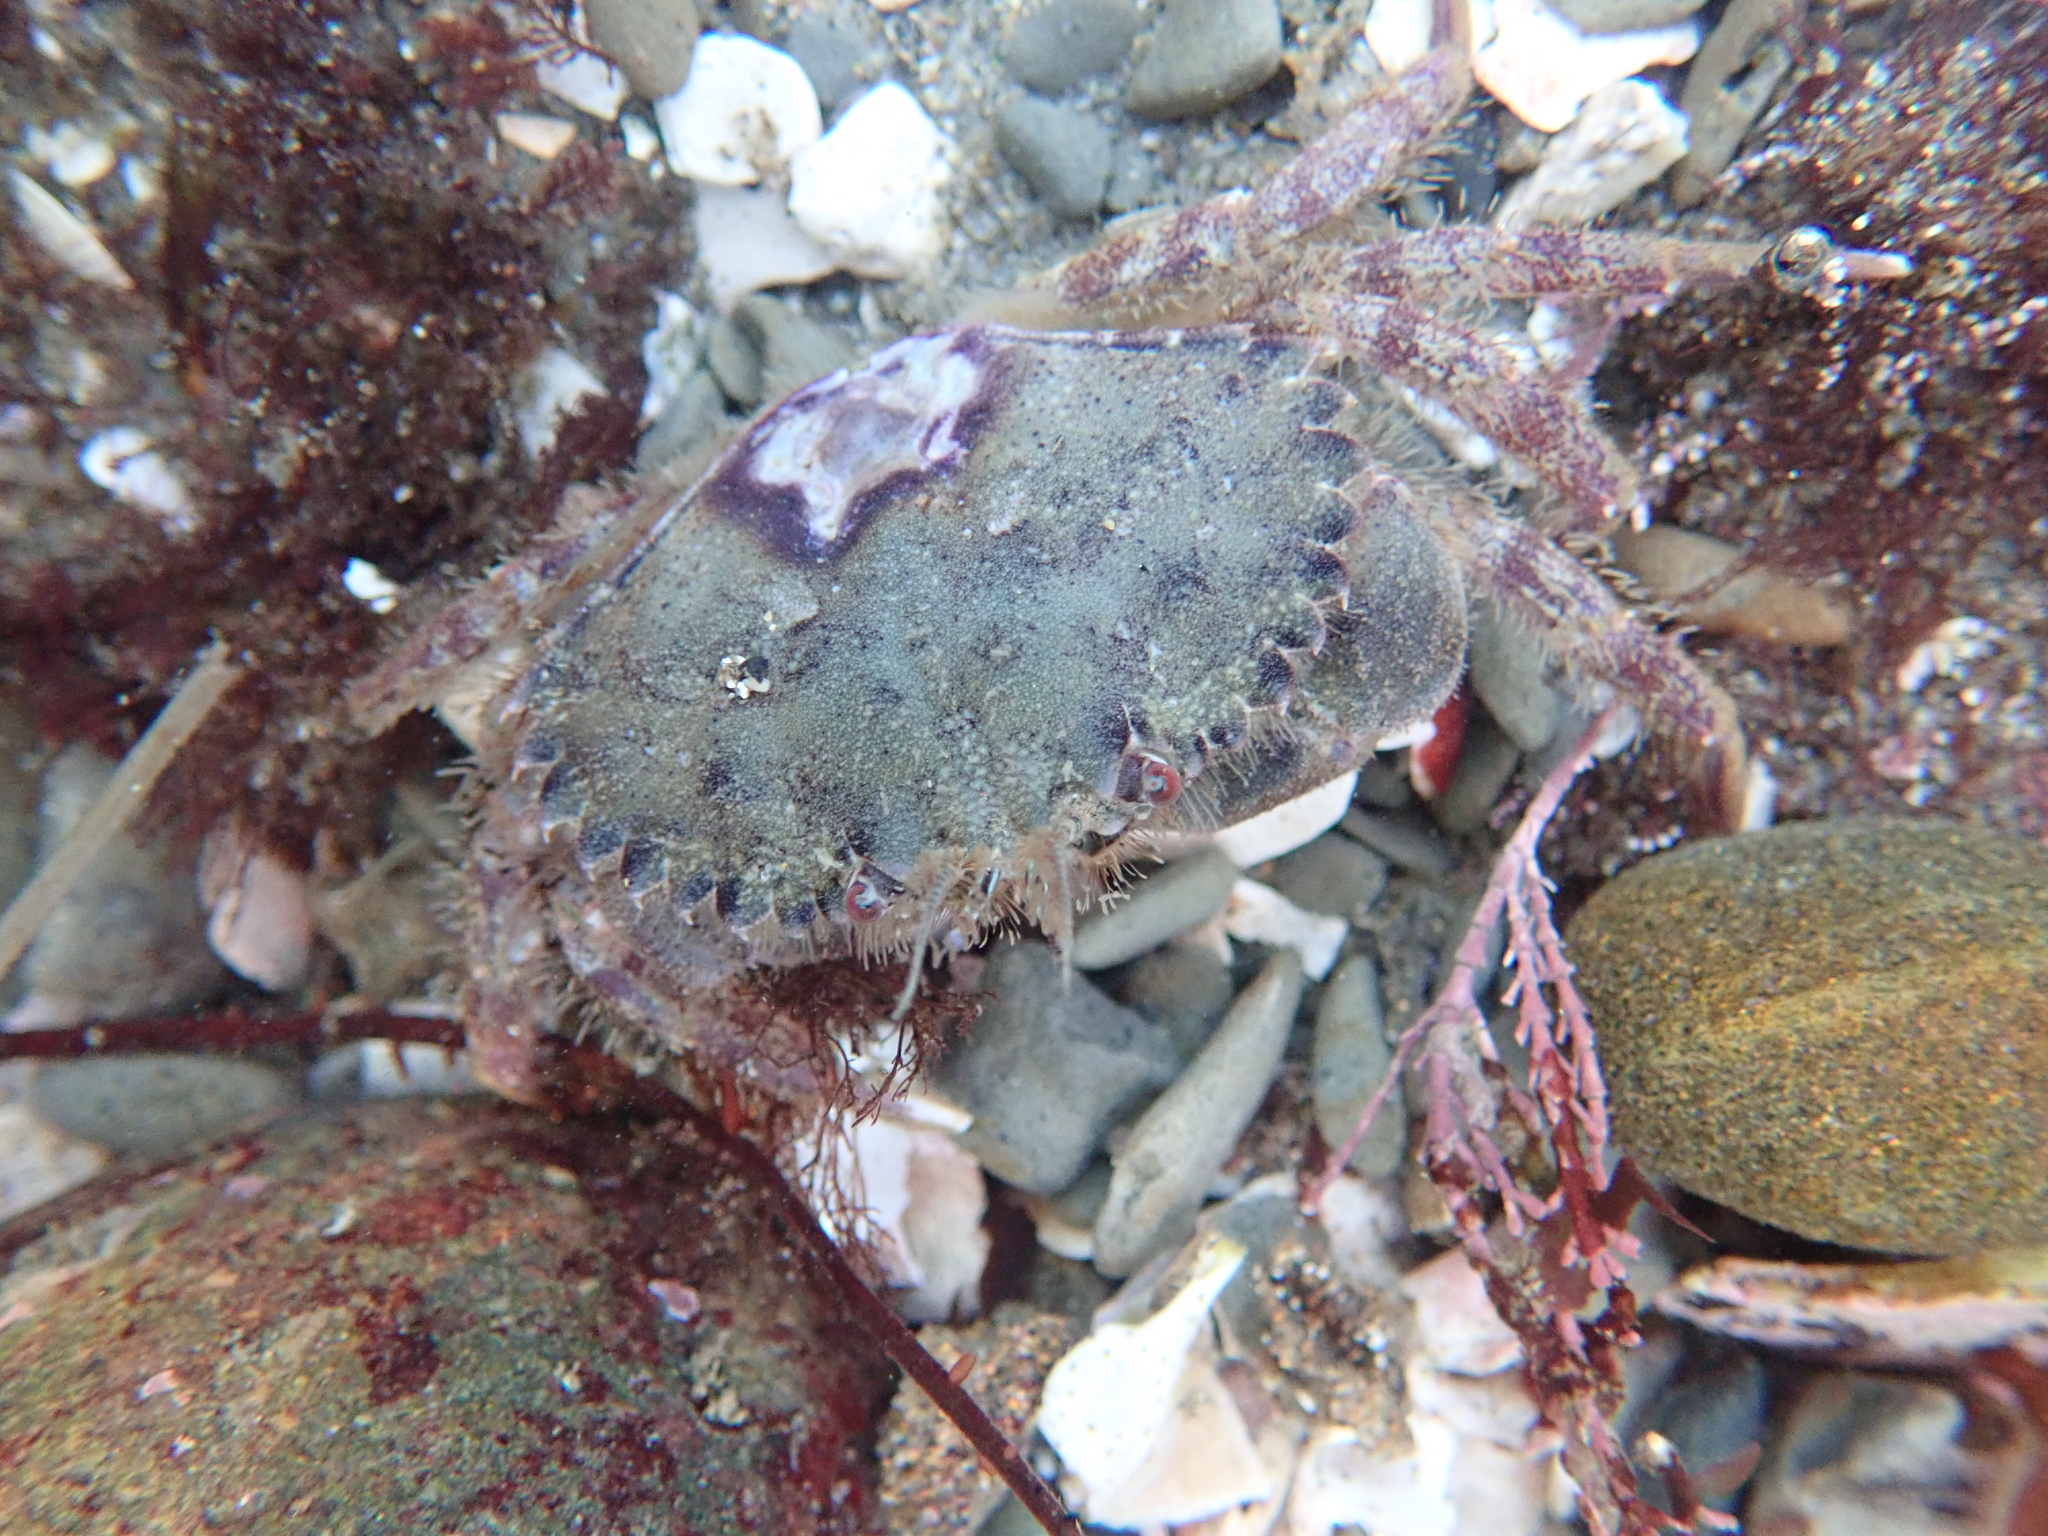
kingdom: Animalia
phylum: Arthropoda
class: Malacostraca
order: Decapoda
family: Cancridae
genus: Romaleon
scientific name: Romaleon antennarium
